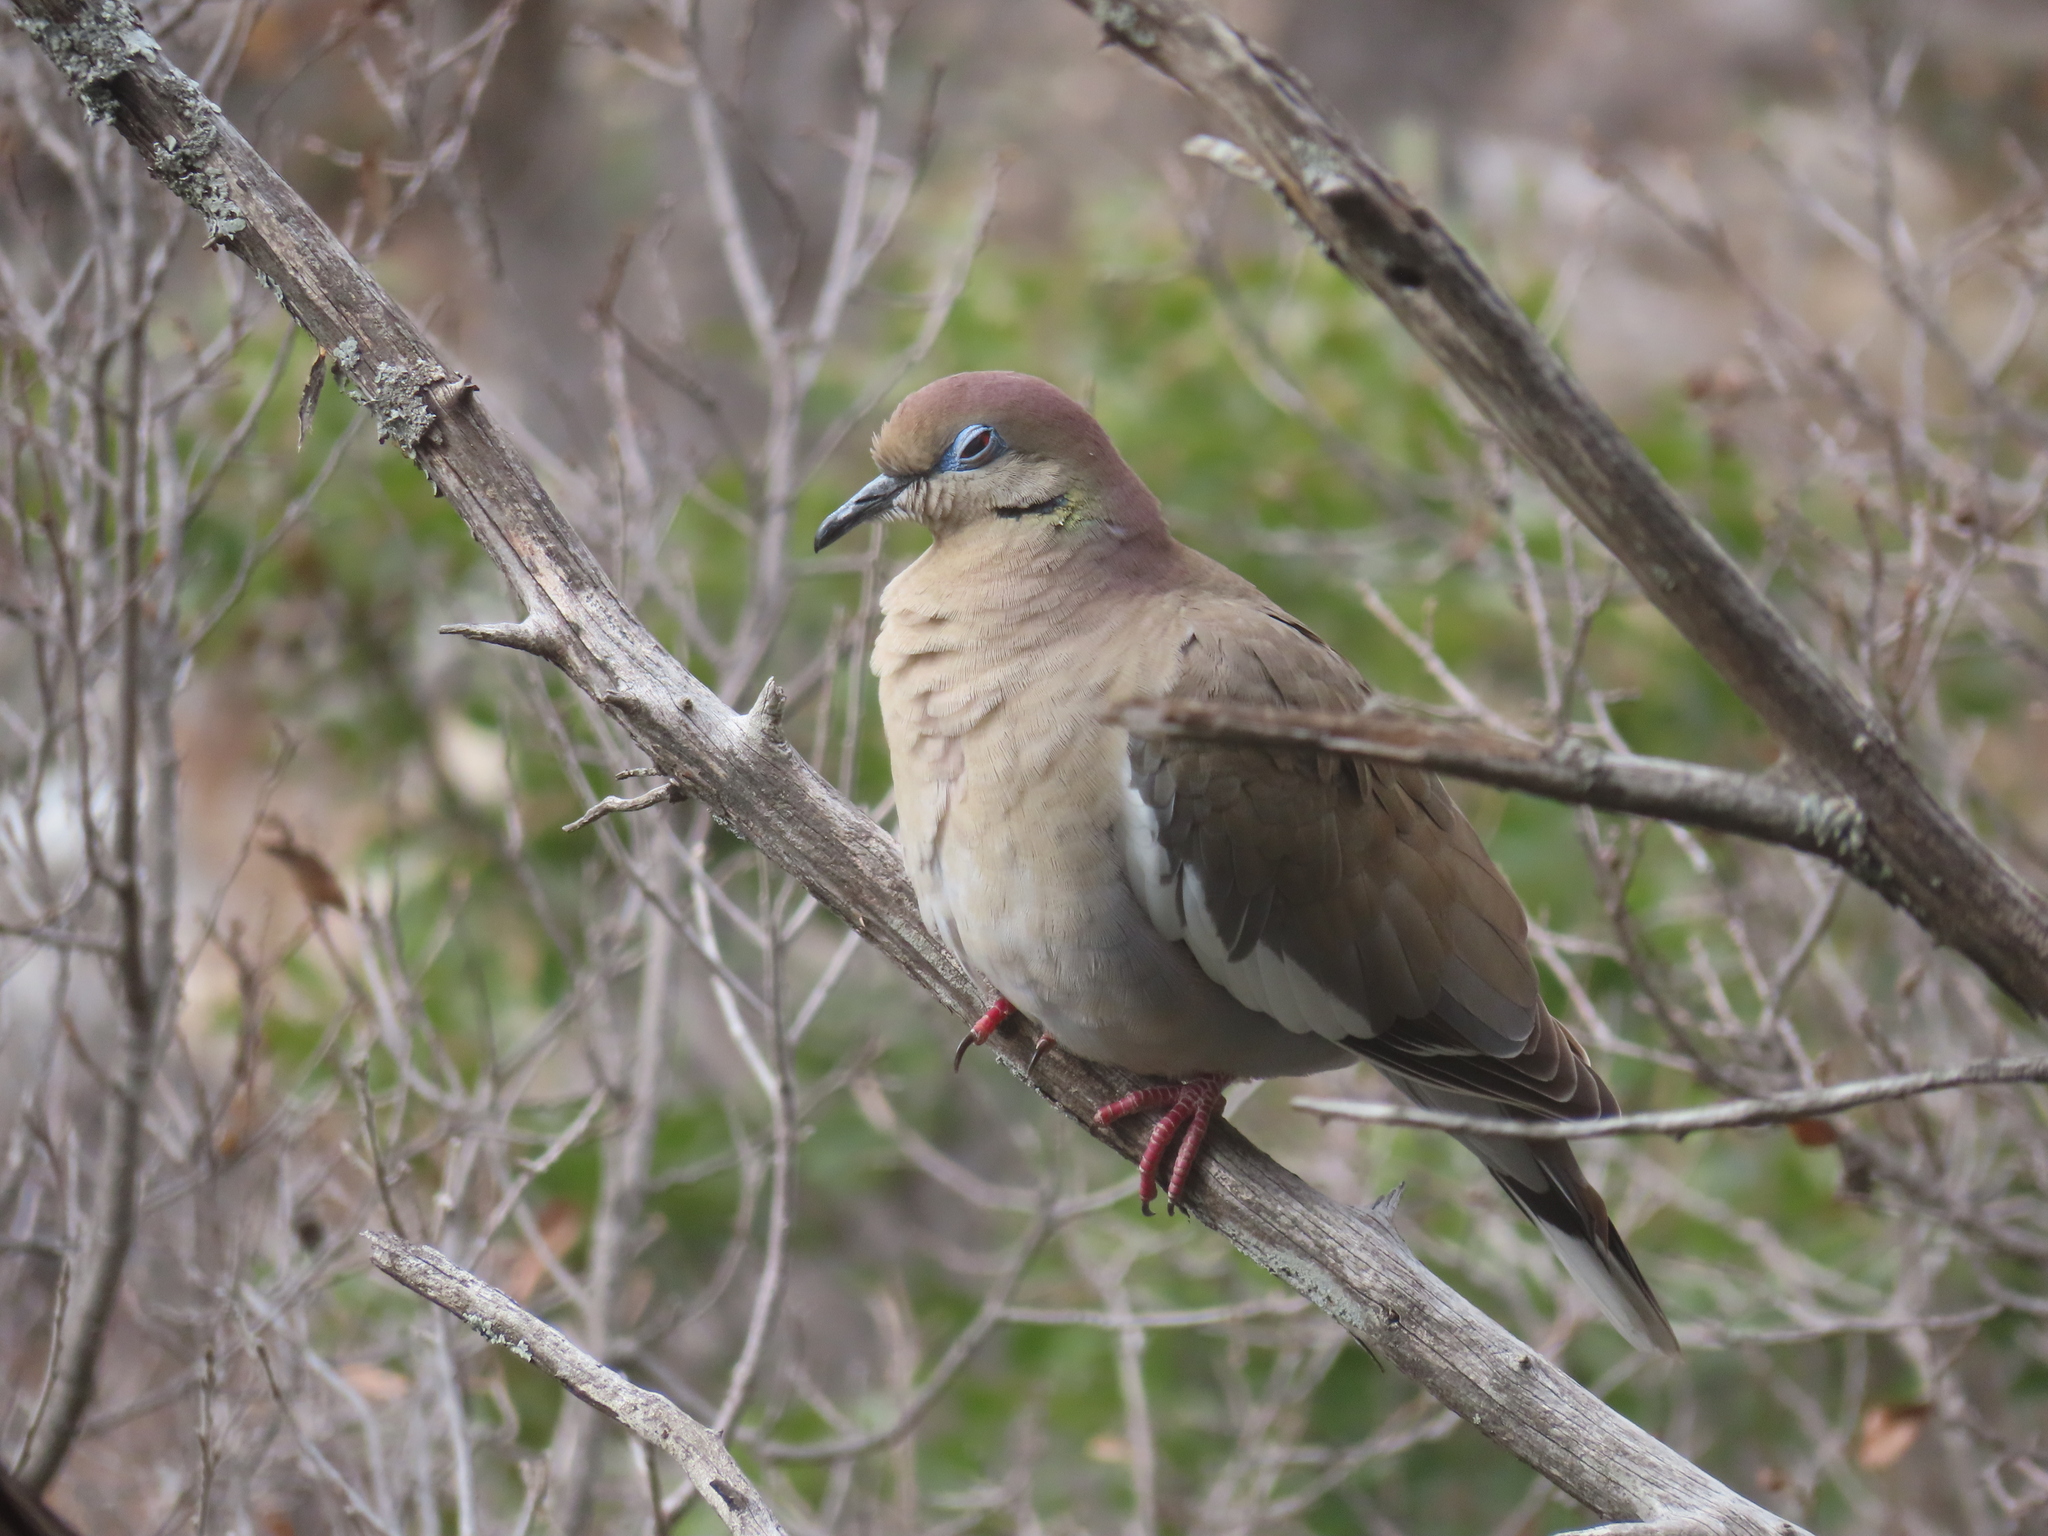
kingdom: Animalia
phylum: Chordata
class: Aves
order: Columbiformes
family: Columbidae
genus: Zenaida
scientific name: Zenaida asiatica
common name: White-winged dove
